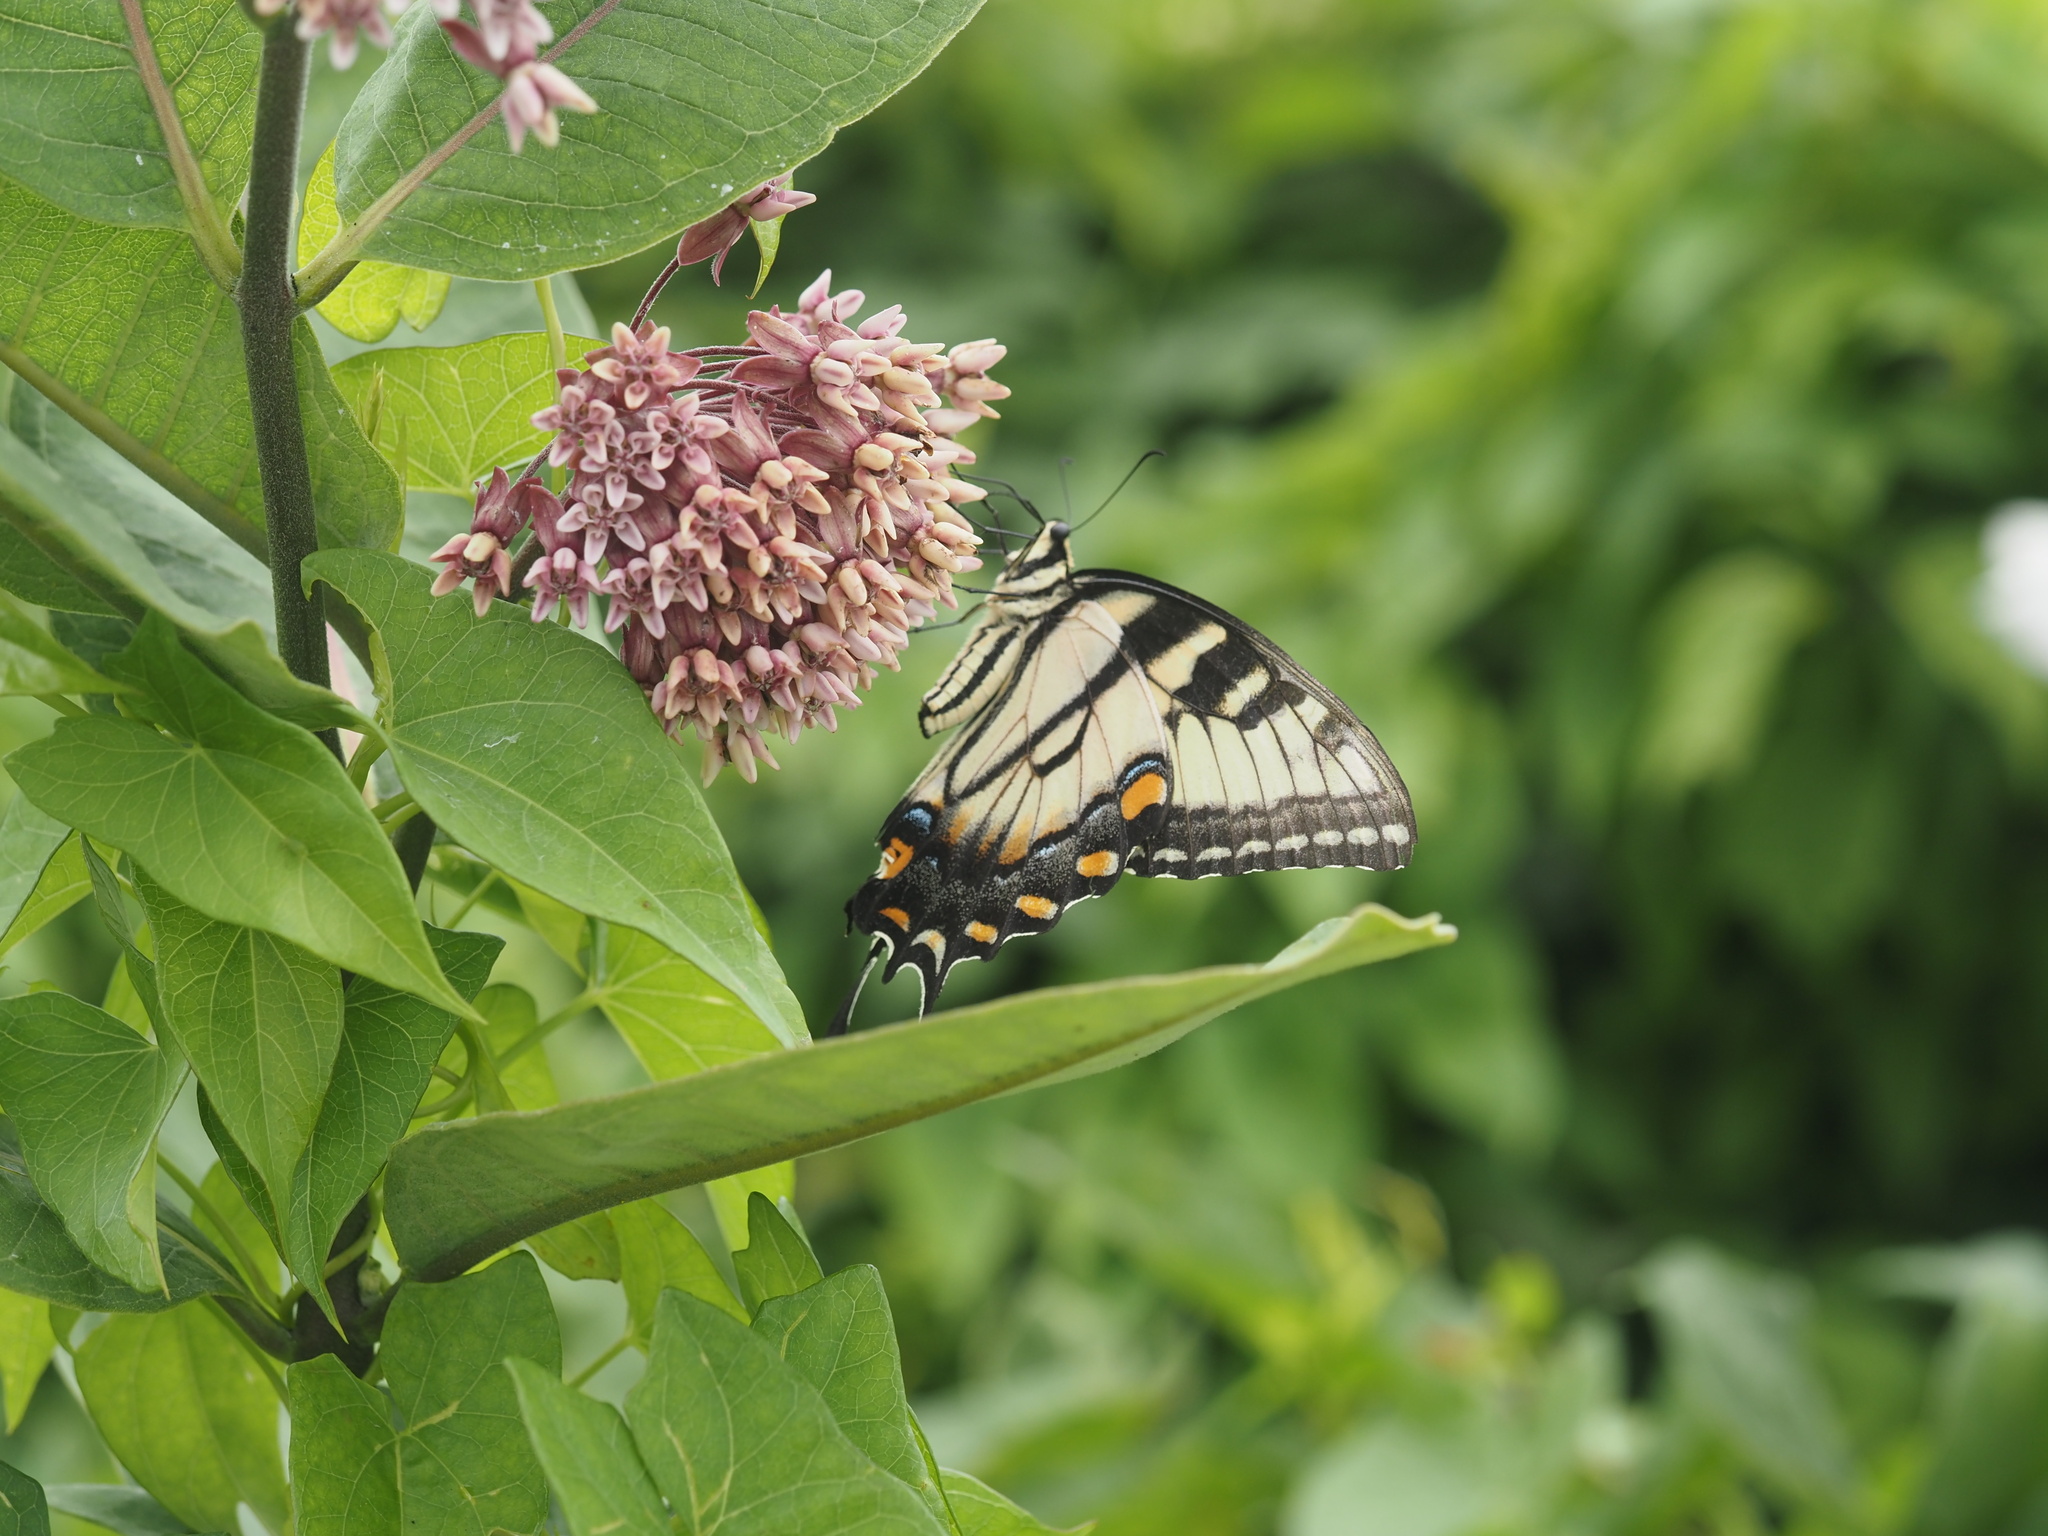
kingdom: Animalia
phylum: Arthropoda
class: Insecta
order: Lepidoptera
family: Papilionidae
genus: Papilio
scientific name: Papilio glaucus
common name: Tiger swallowtail
